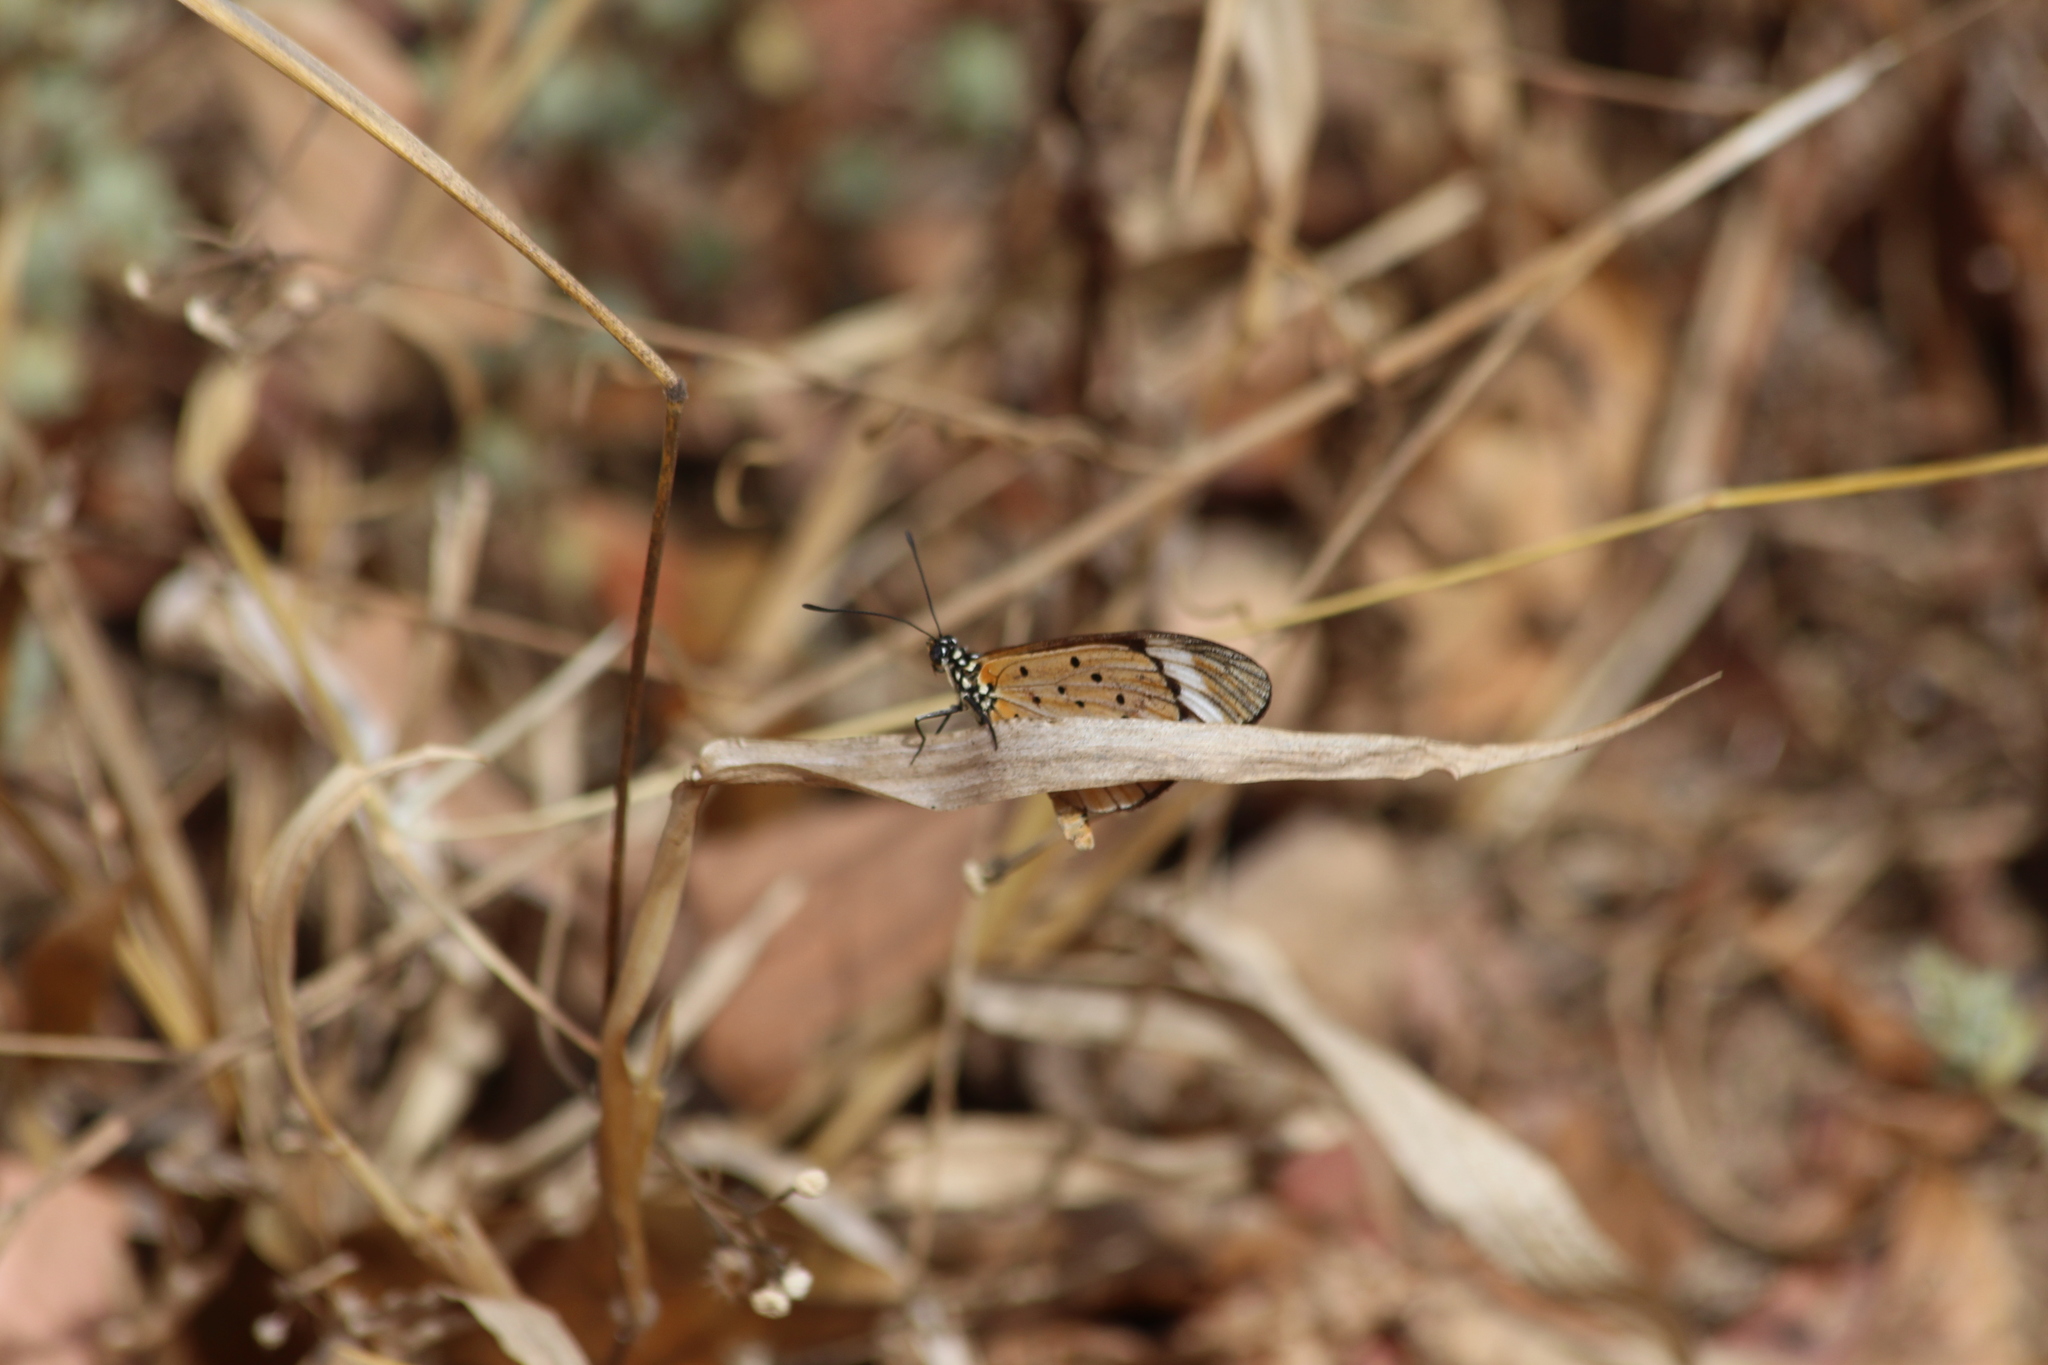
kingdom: Animalia
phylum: Arthropoda
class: Insecta
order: Lepidoptera
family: Nymphalidae
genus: Acraea
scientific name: Acraea Telchinia encedon
